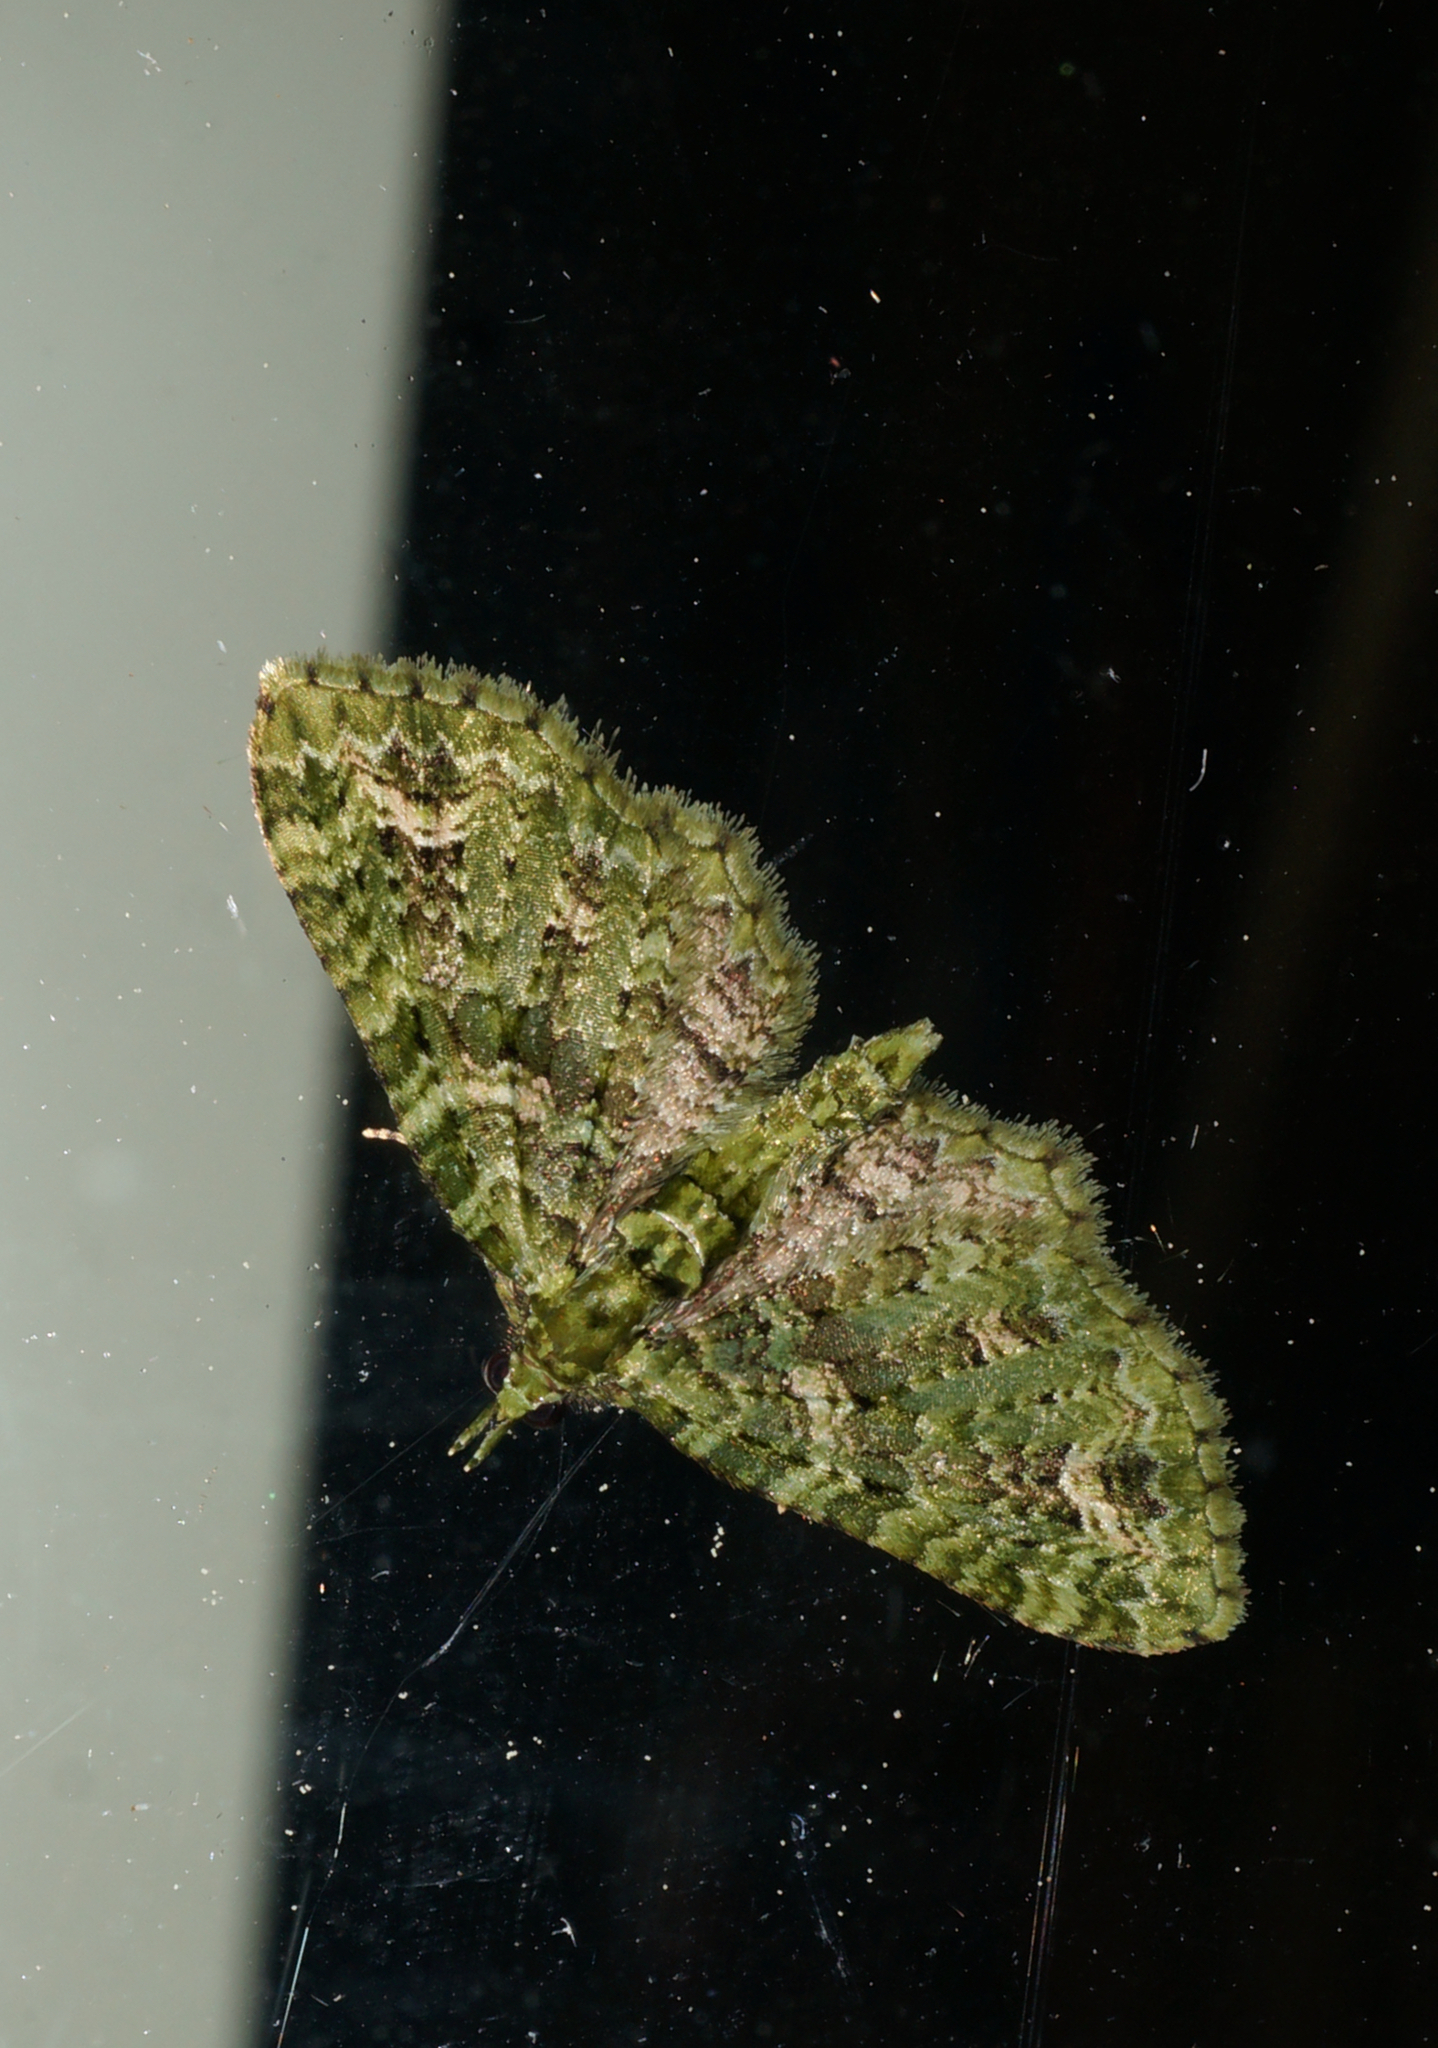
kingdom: Animalia
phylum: Arthropoda
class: Insecta
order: Lepidoptera
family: Geometridae
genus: Pasiphila
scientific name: Pasiphila muscosata
